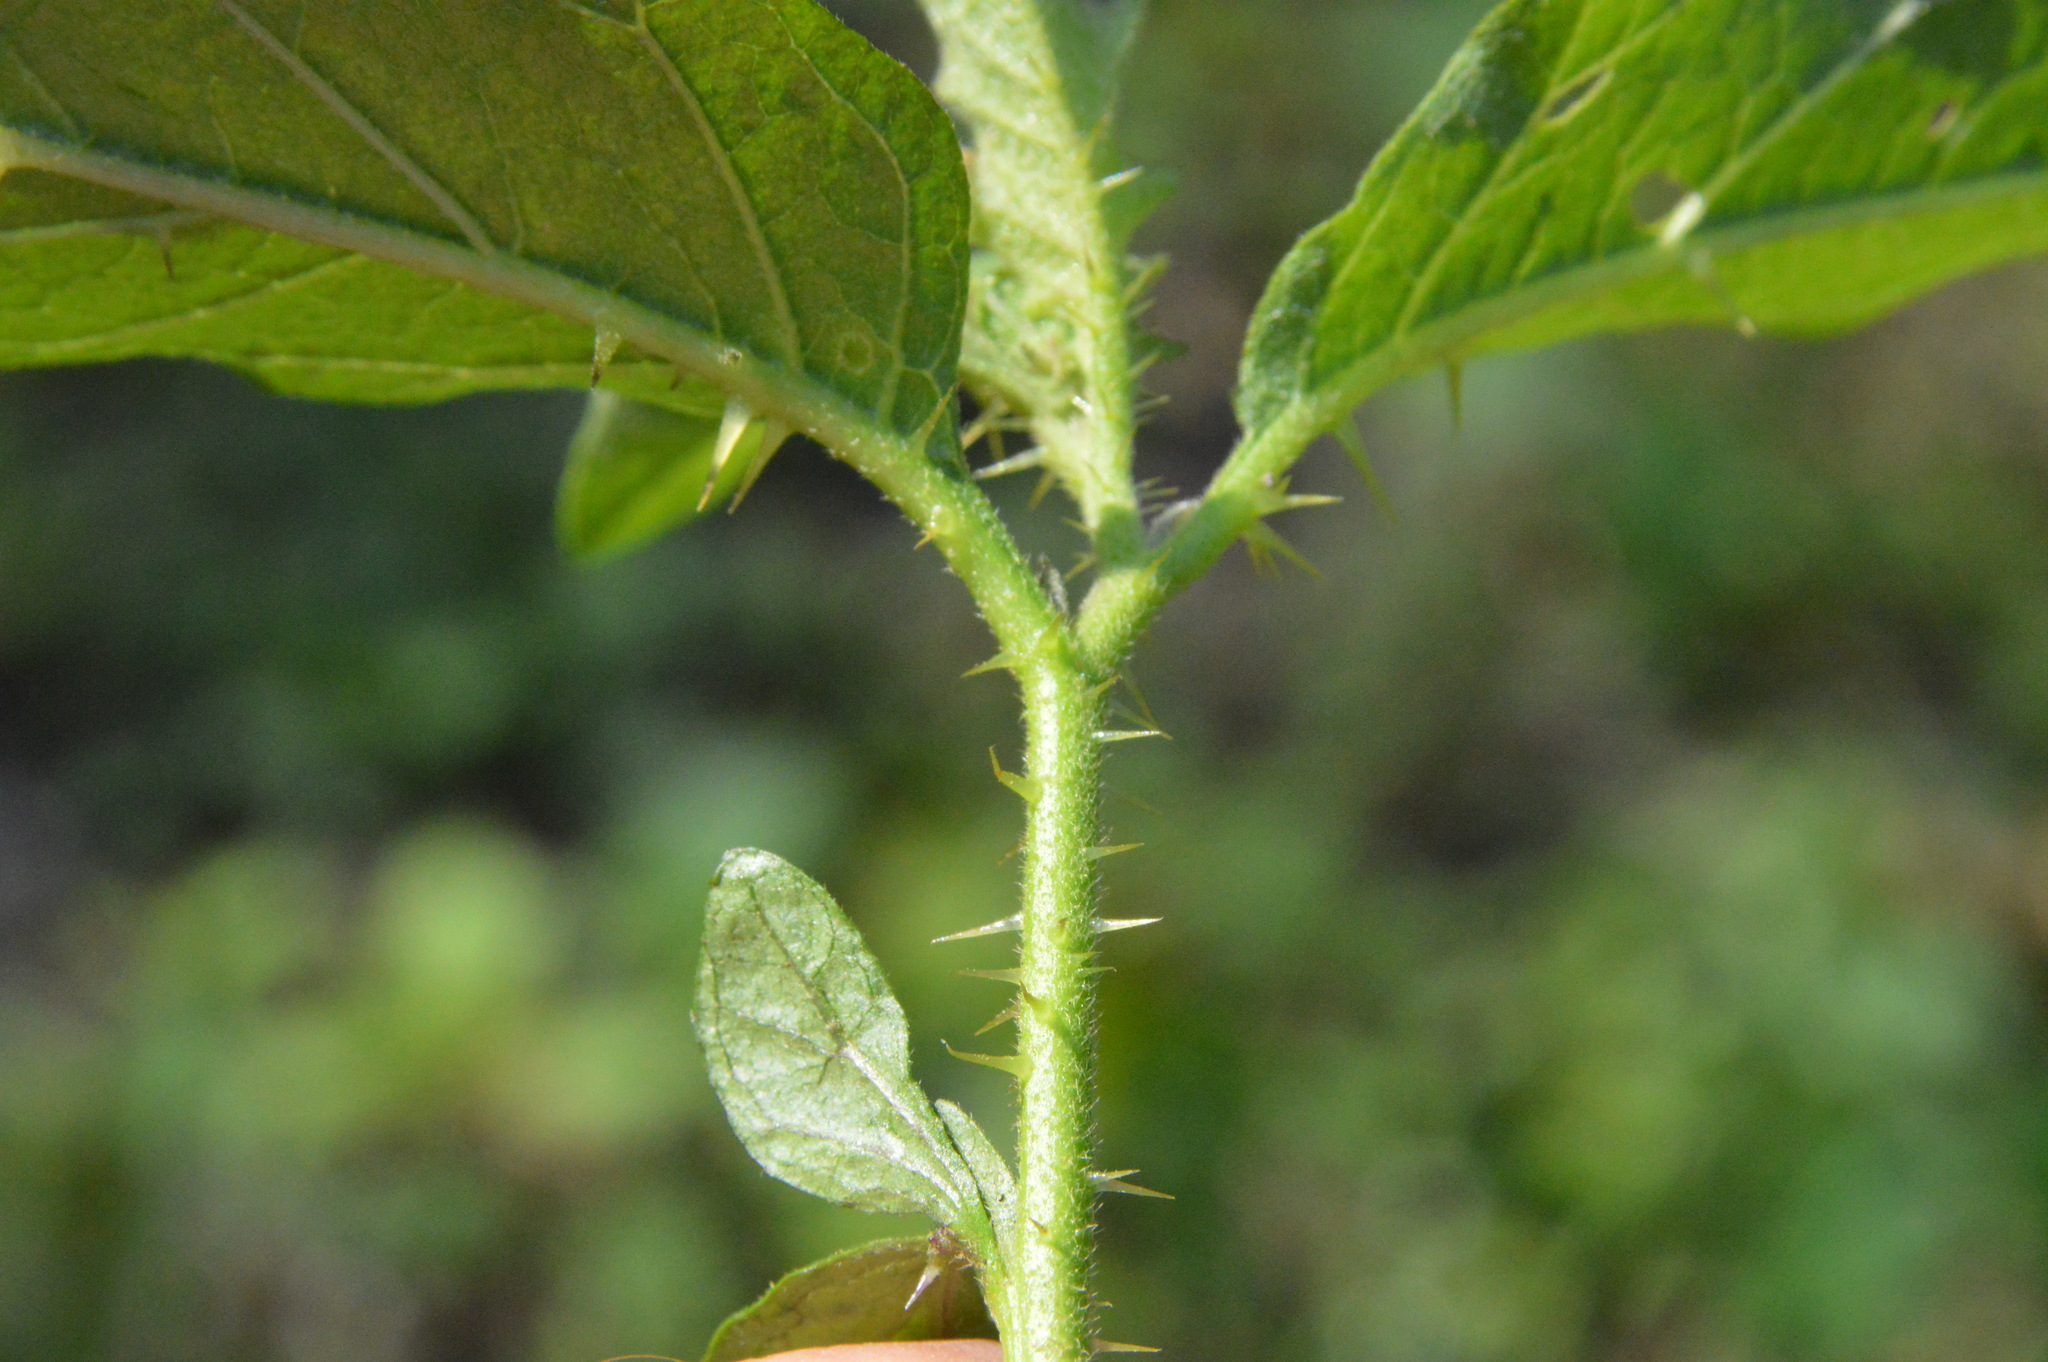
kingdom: Plantae
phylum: Tracheophyta
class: Magnoliopsida
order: Solanales
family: Solanaceae
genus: Solanum
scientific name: Solanum carolinense
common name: Horse-nettle
